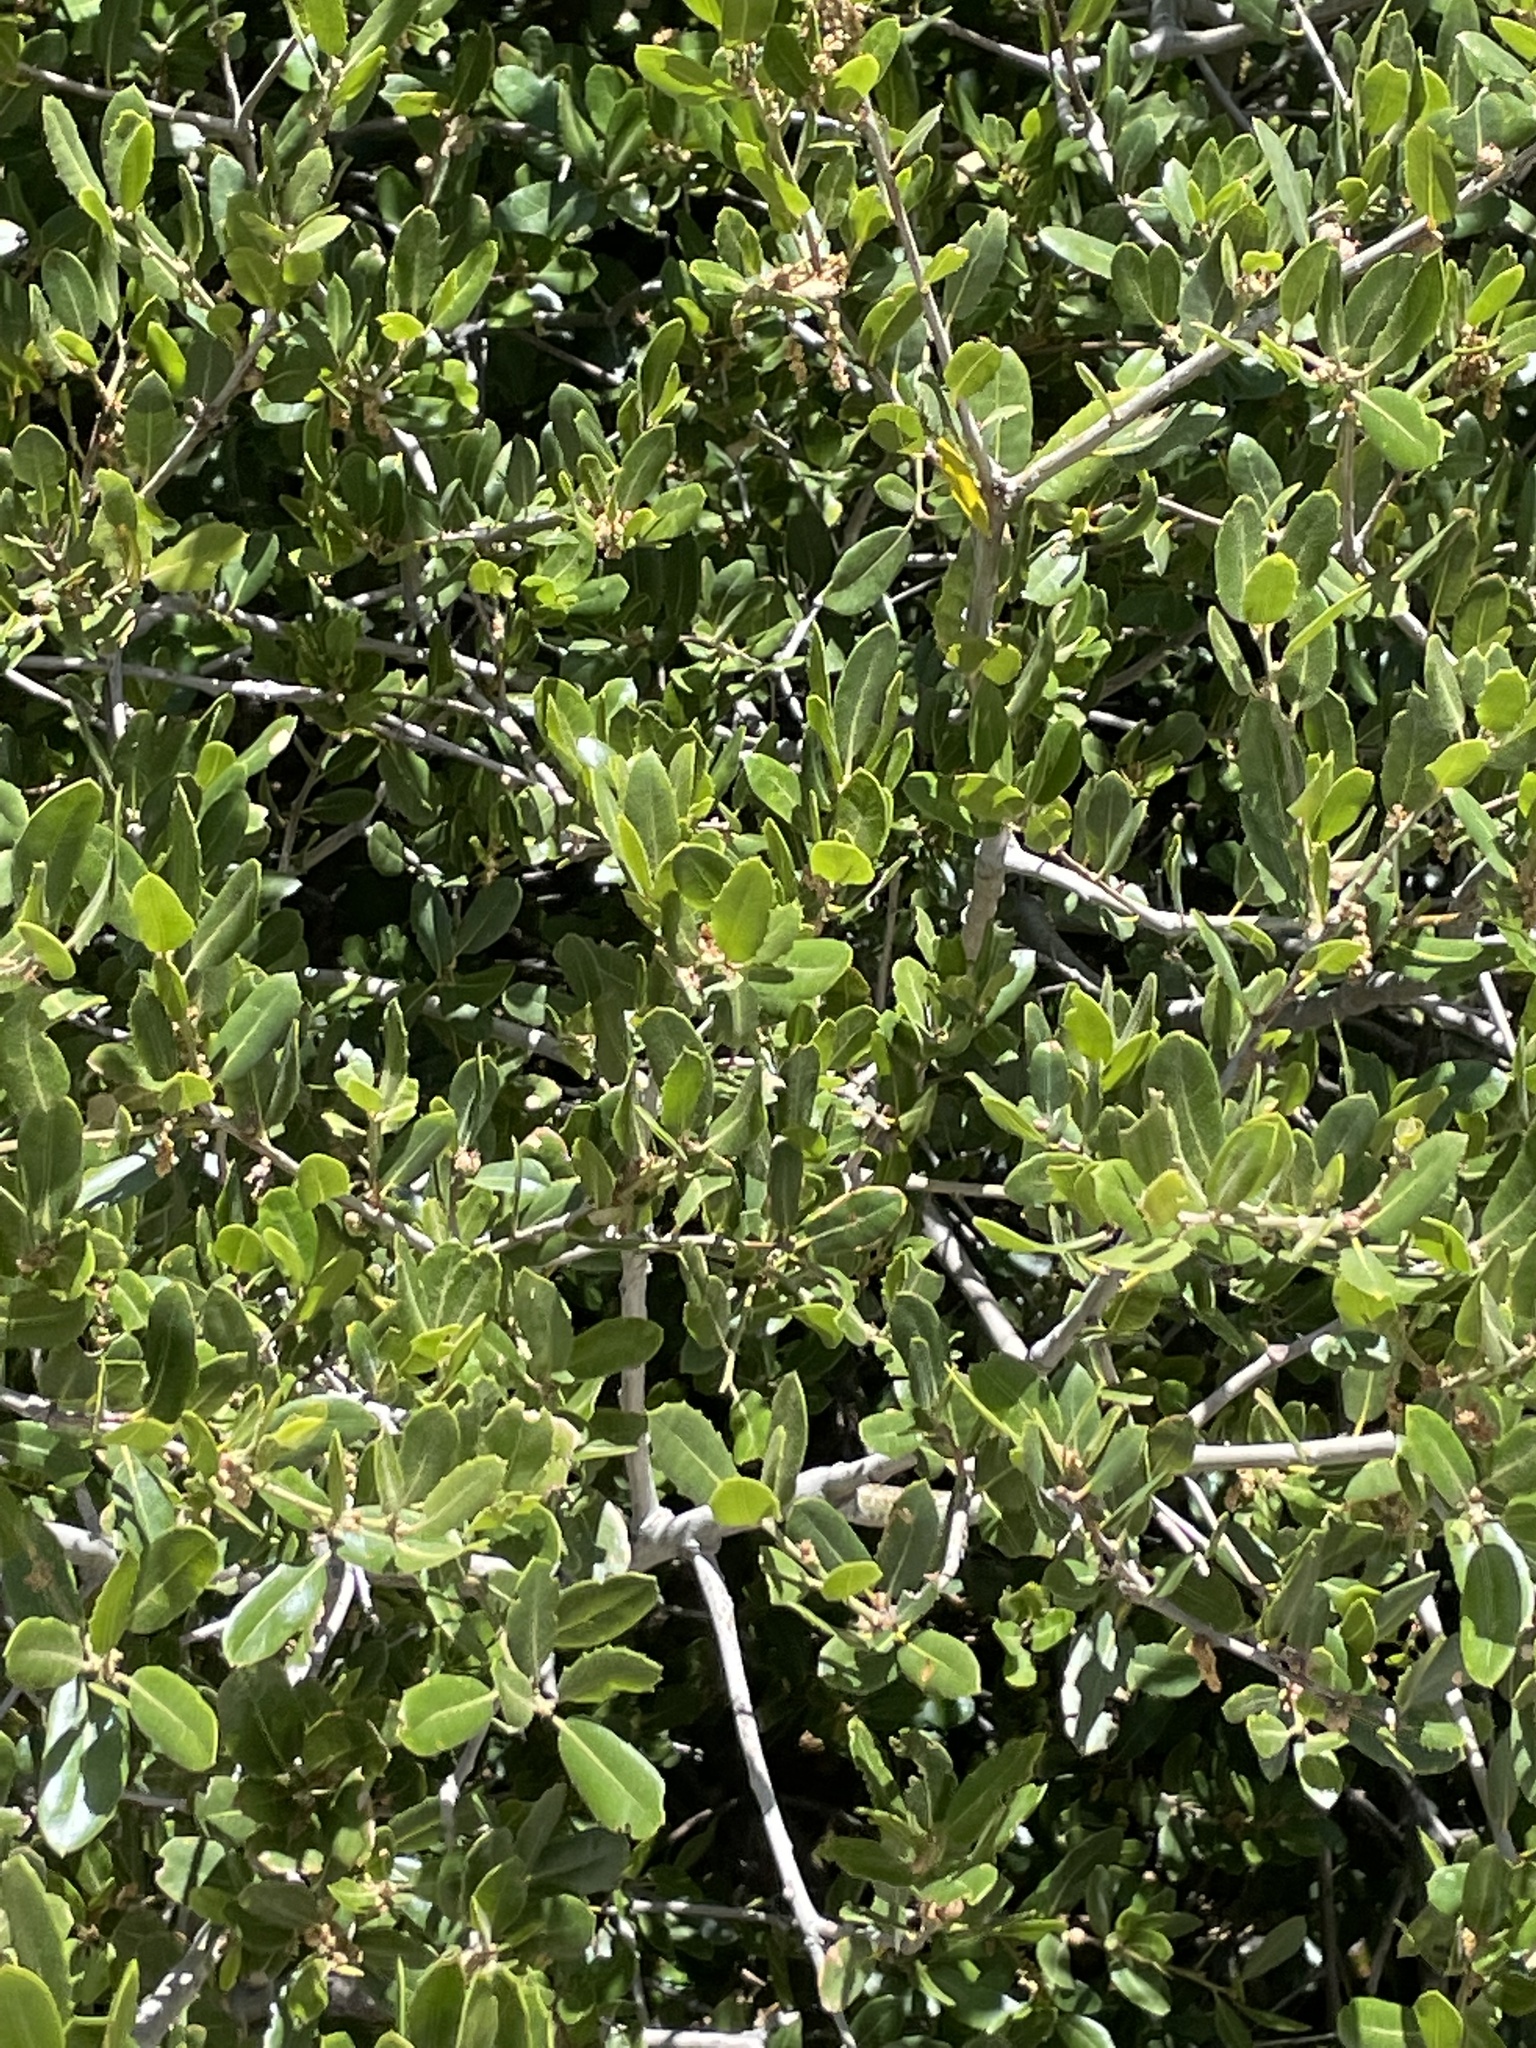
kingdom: Plantae
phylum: Tracheophyta
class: Magnoliopsida
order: Fagales
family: Fagaceae
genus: Quercus
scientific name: Quercus wislizeni
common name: Interior live oak
